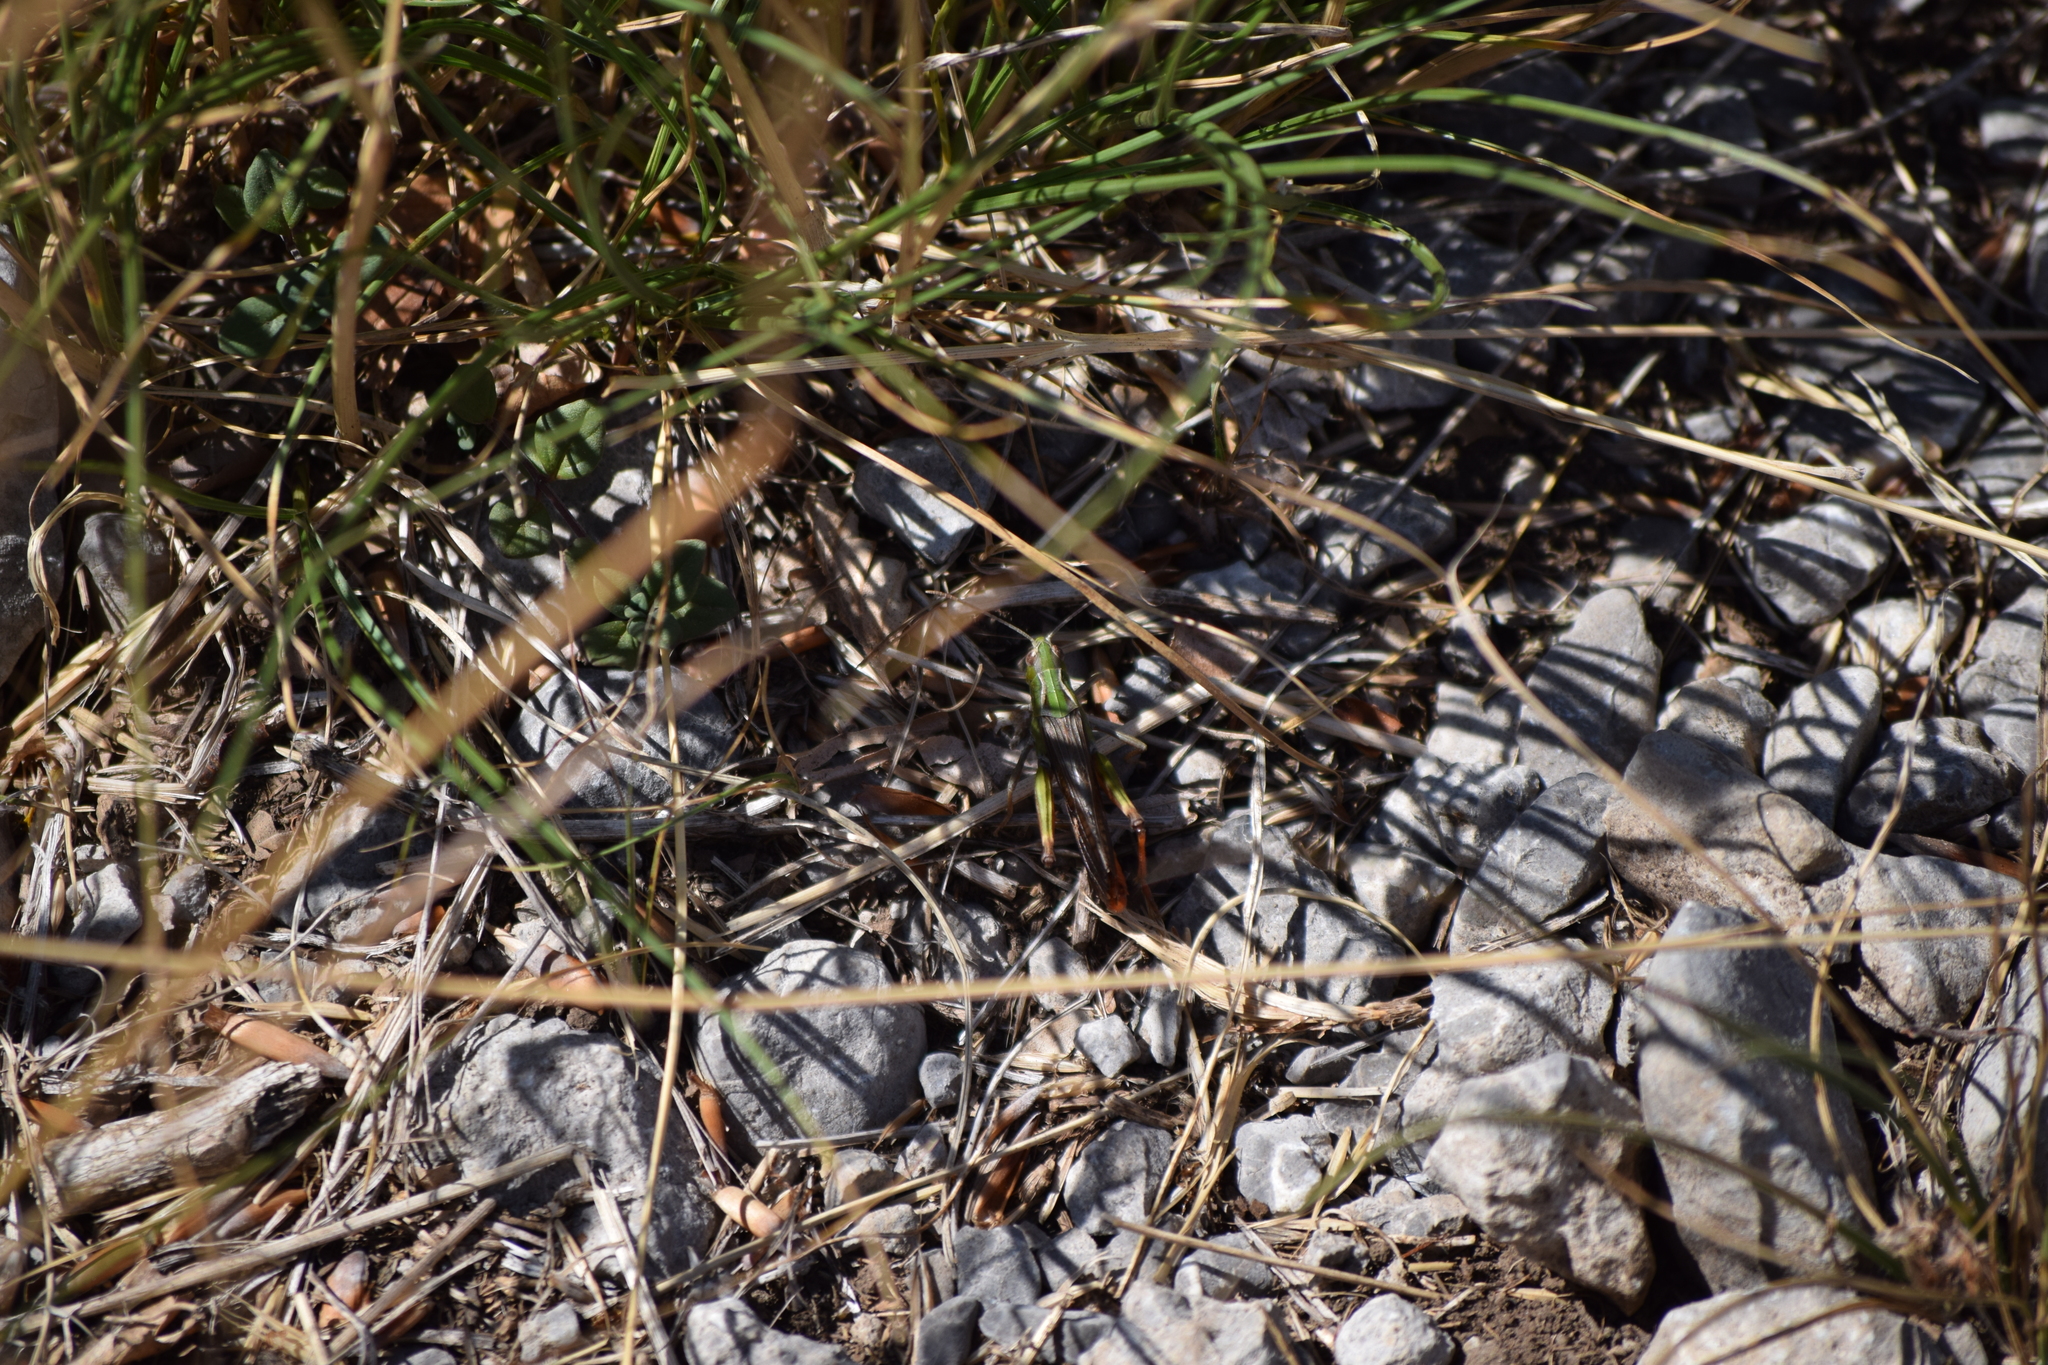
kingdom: Animalia
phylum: Arthropoda
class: Insecta
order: Orthoptera
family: Acrididae
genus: Stenobothrus
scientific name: Stenobothrus rubicundulus
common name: Wing-buzzing grasshopper
